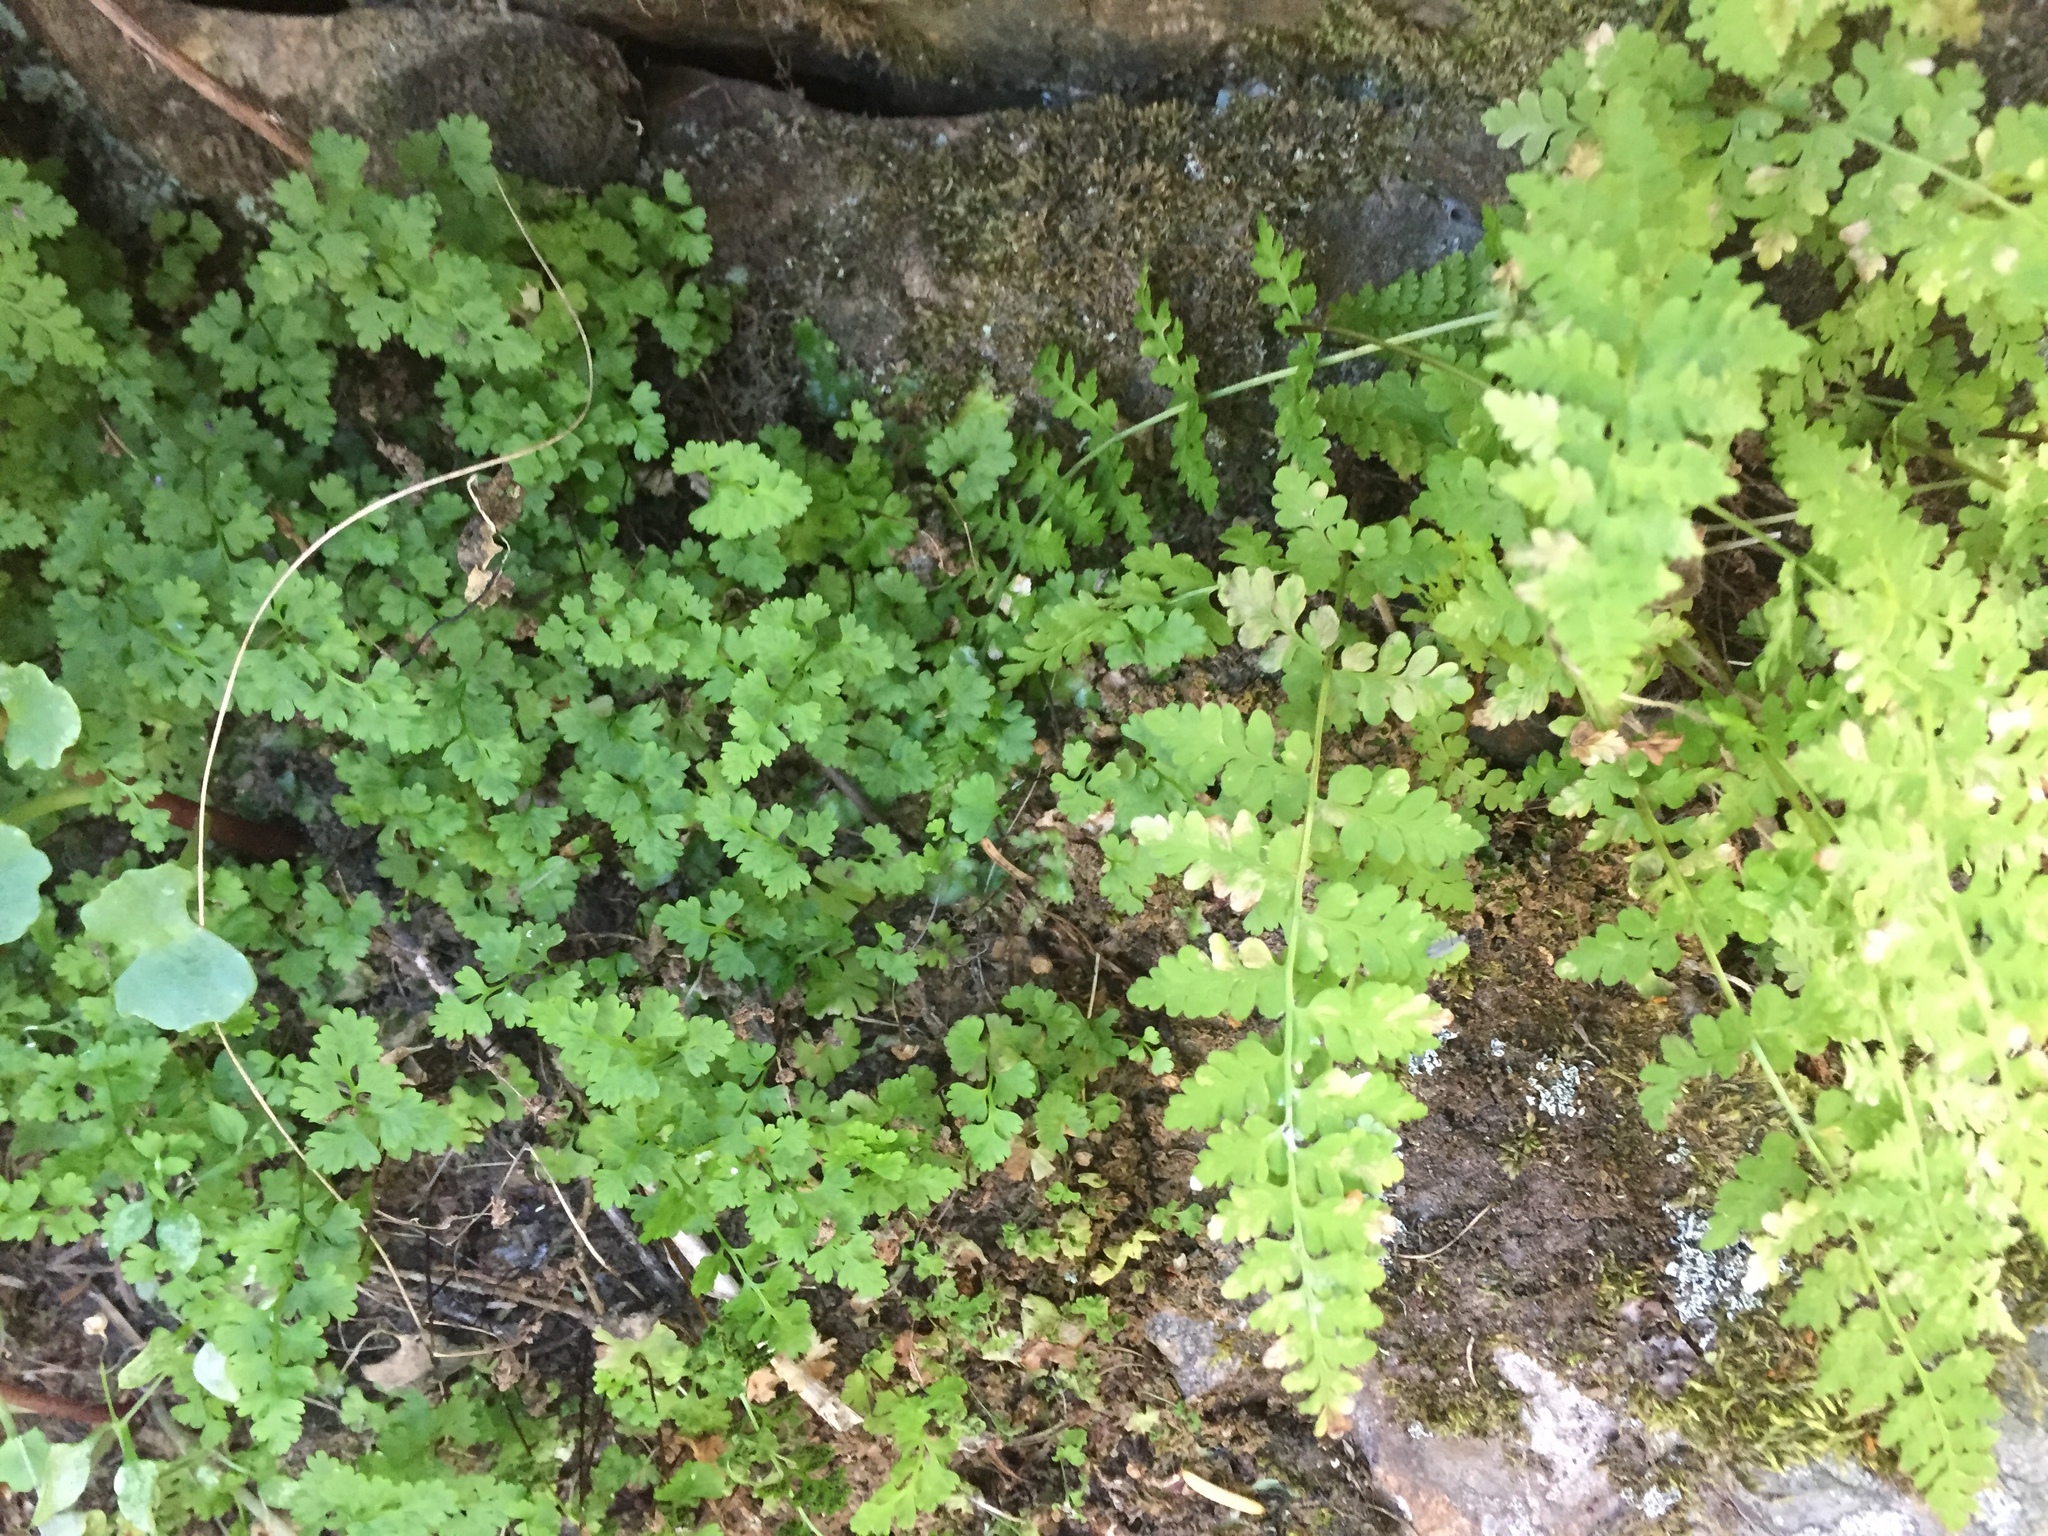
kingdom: Plantae
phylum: Tracheophyta
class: Polypodiopsida
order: Polypodiales
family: Cystopteridaceae
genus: Cystopteris
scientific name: Cystopteris fragilis
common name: Brittle bladder fern
